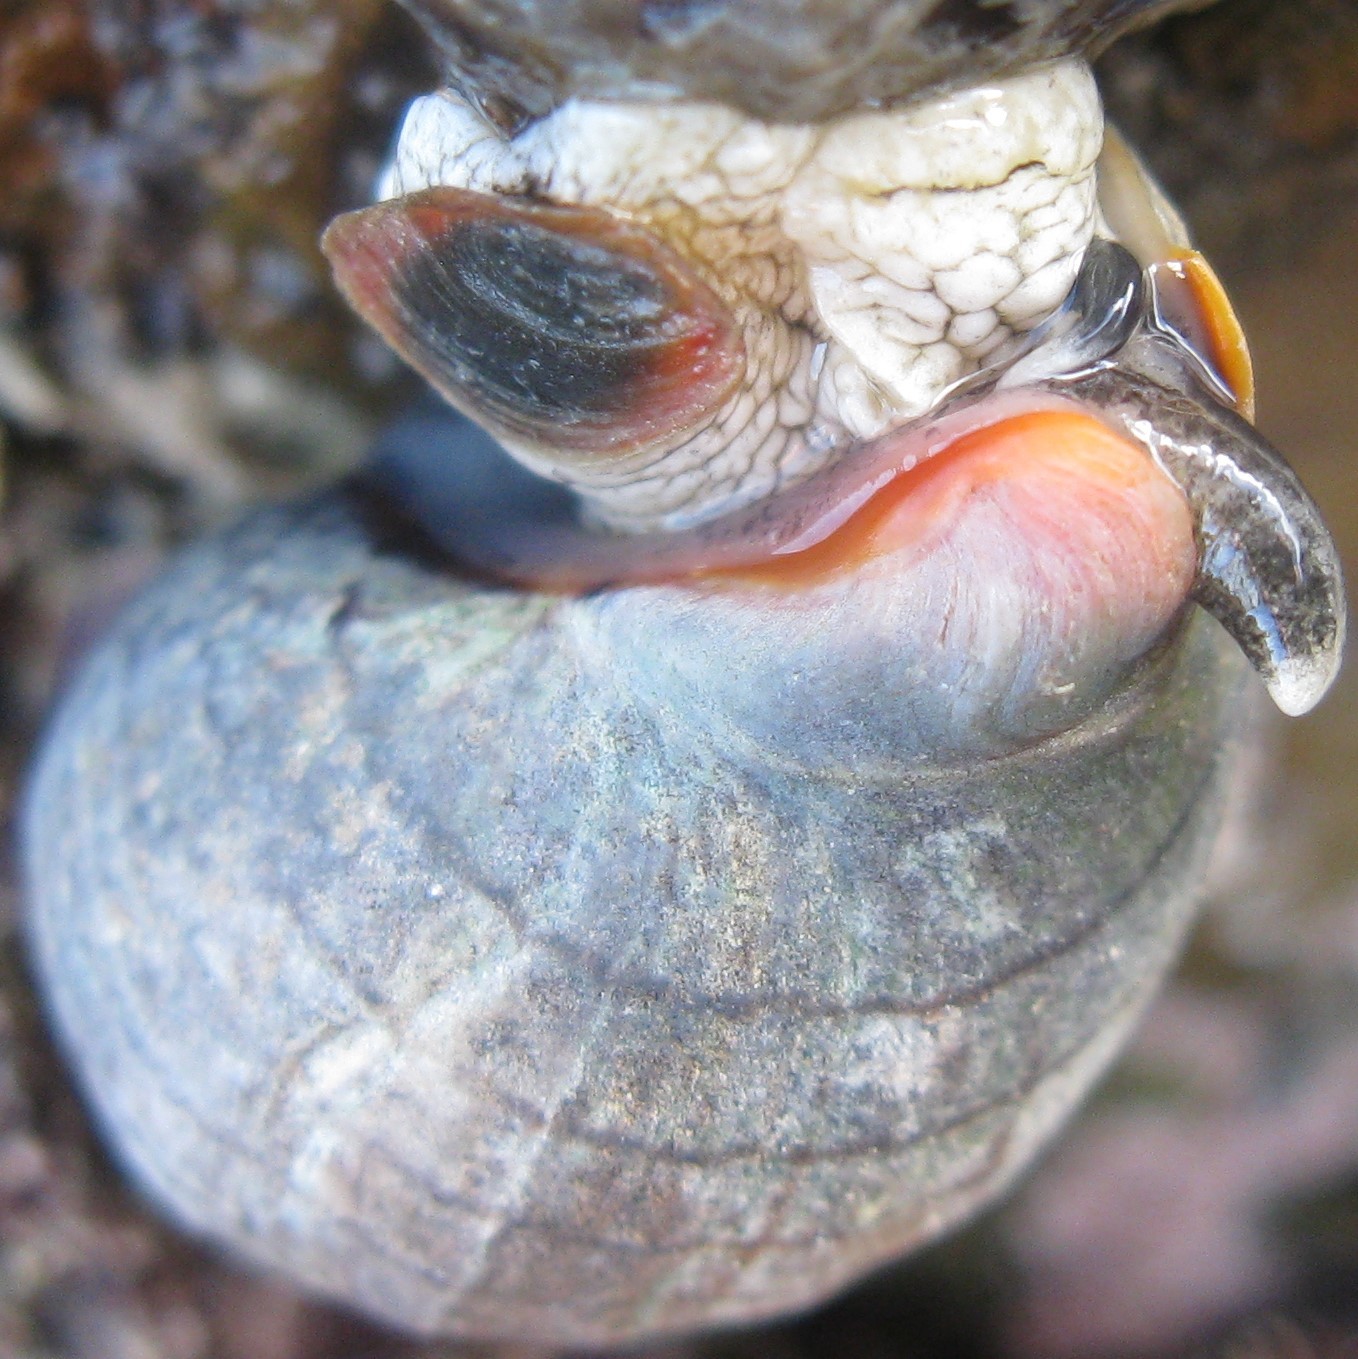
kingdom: Animalia
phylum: Mollusca
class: Gastropoda
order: Neogastropoda
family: Cominellidae
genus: Cominella
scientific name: Cominella virgata
